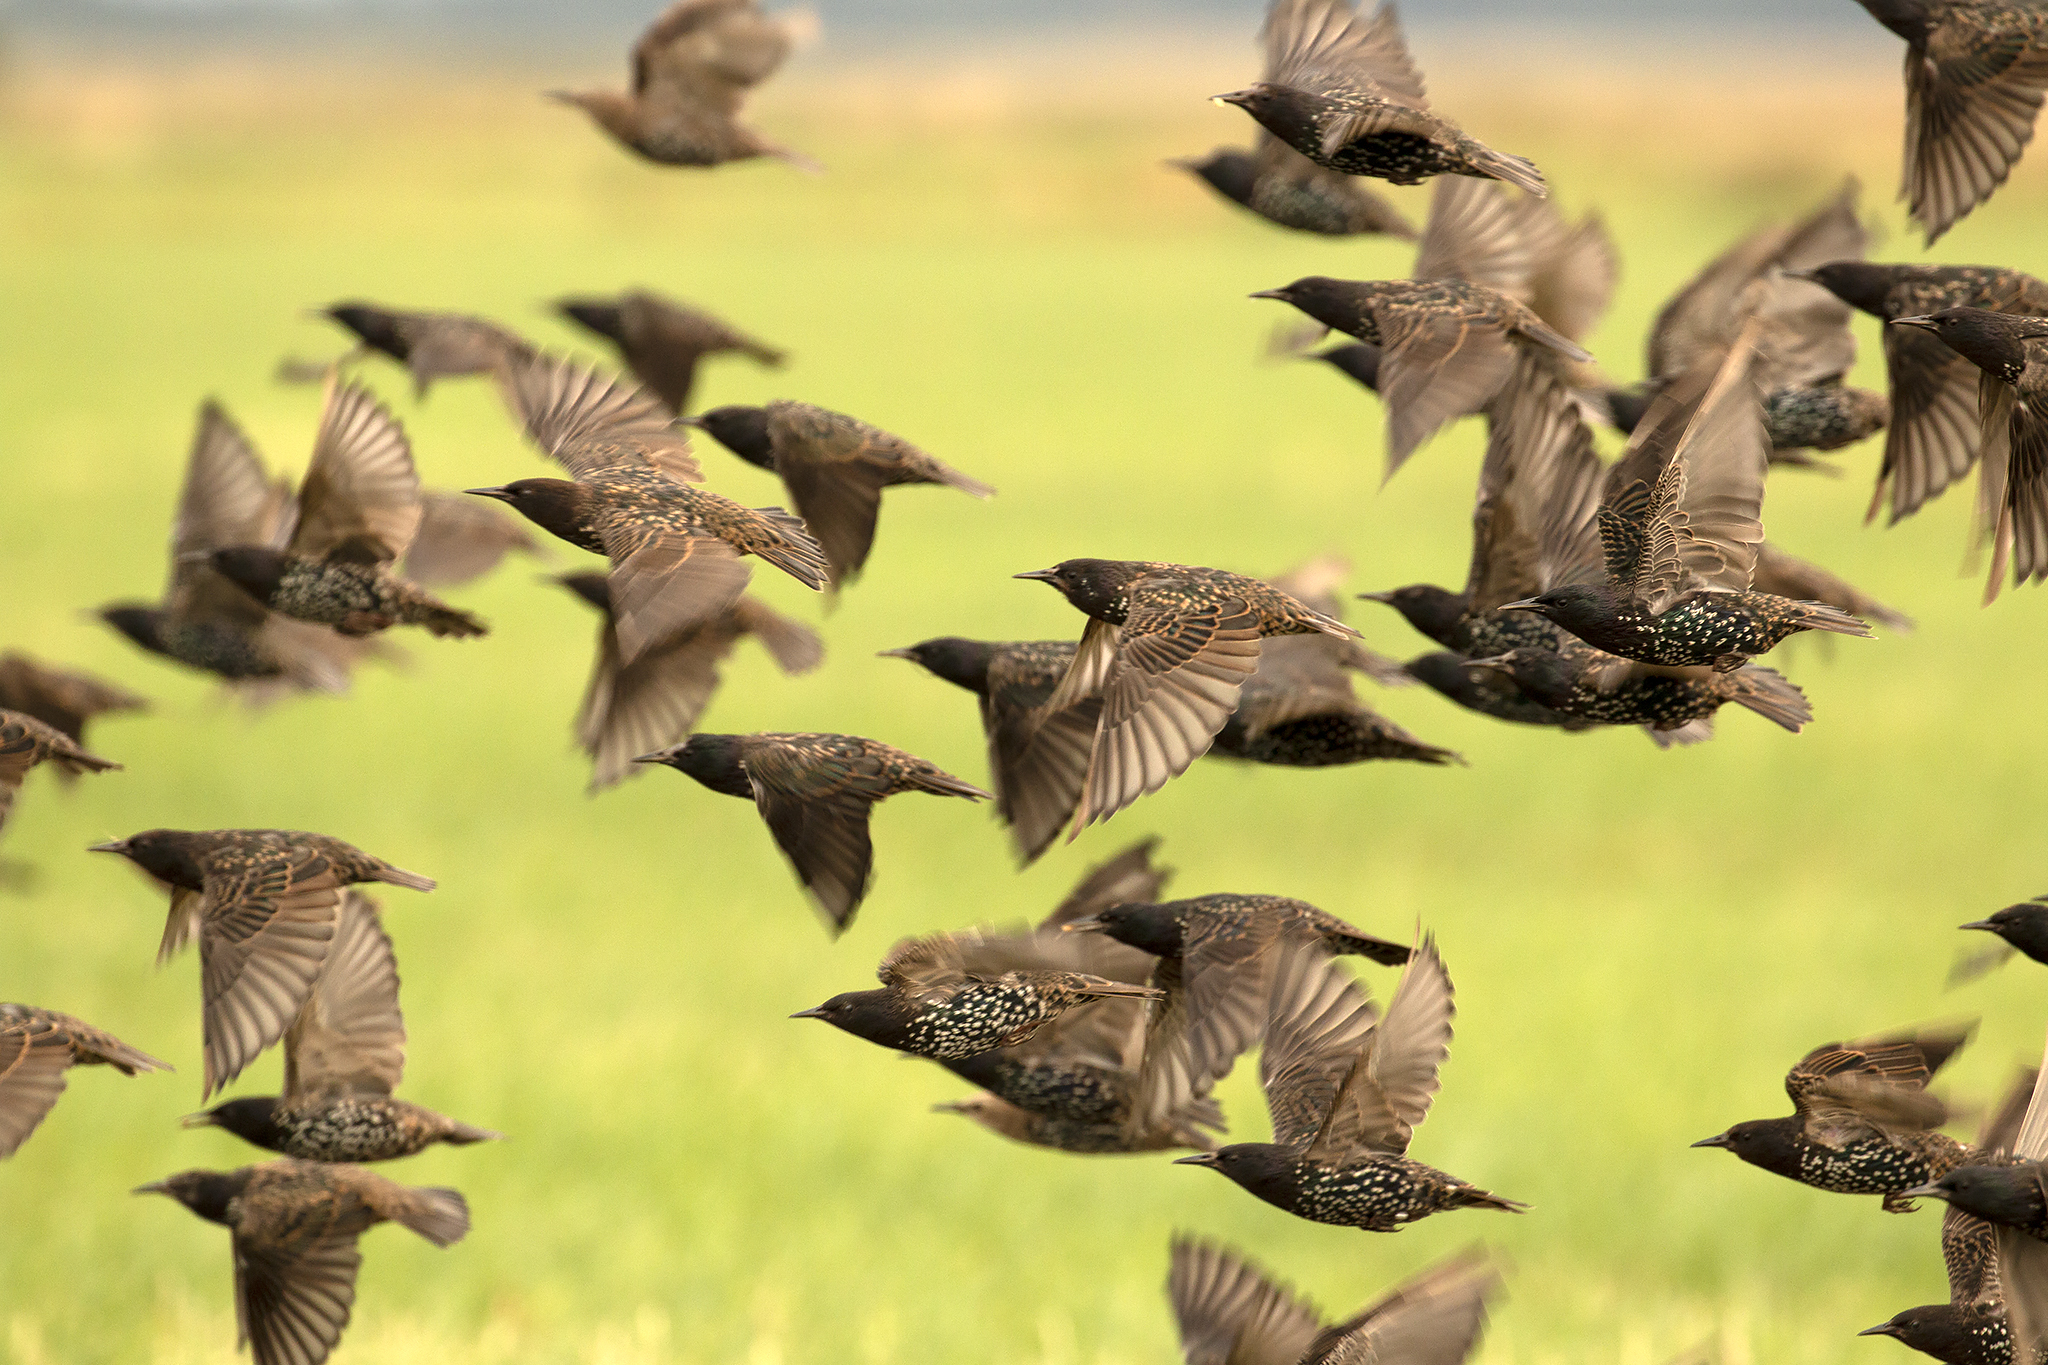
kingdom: Animalia
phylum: Chordata
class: Aves
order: Passeriformes
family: Sturnidae
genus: Sturnus
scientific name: Sturnus vulgaris
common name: Common starling
